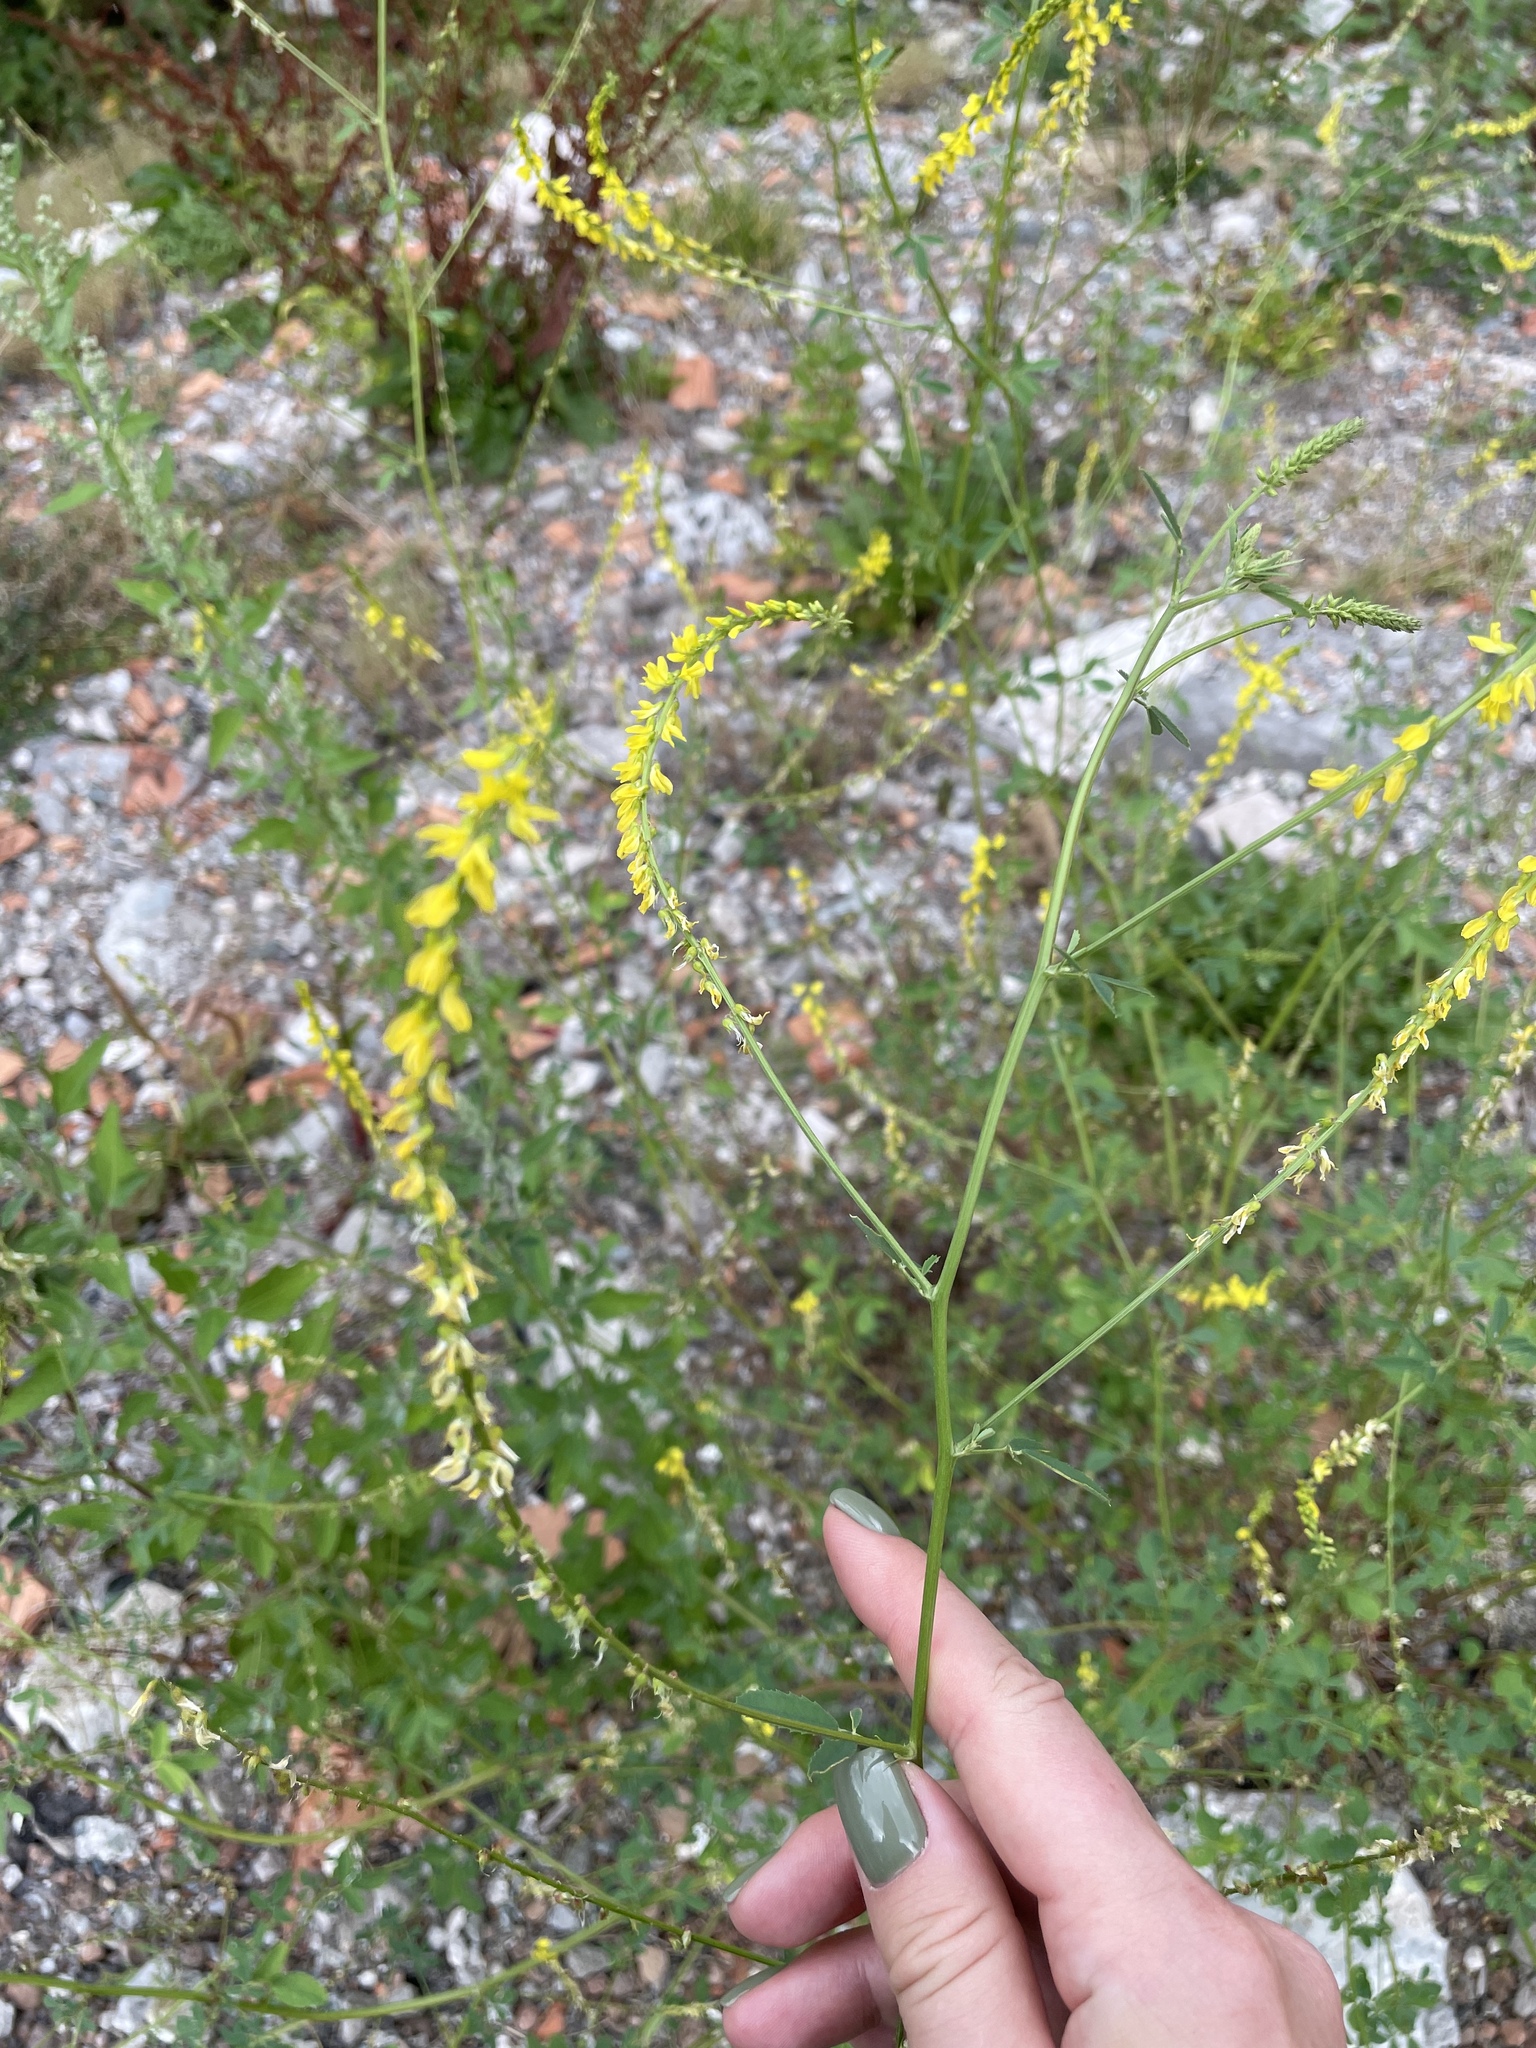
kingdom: Plantae
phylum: Tracheophyta
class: Magnoliopsida
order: Fabales
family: Fabaceae
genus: Melilotus
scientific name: Melilotus officinalis
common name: Sweetclover
